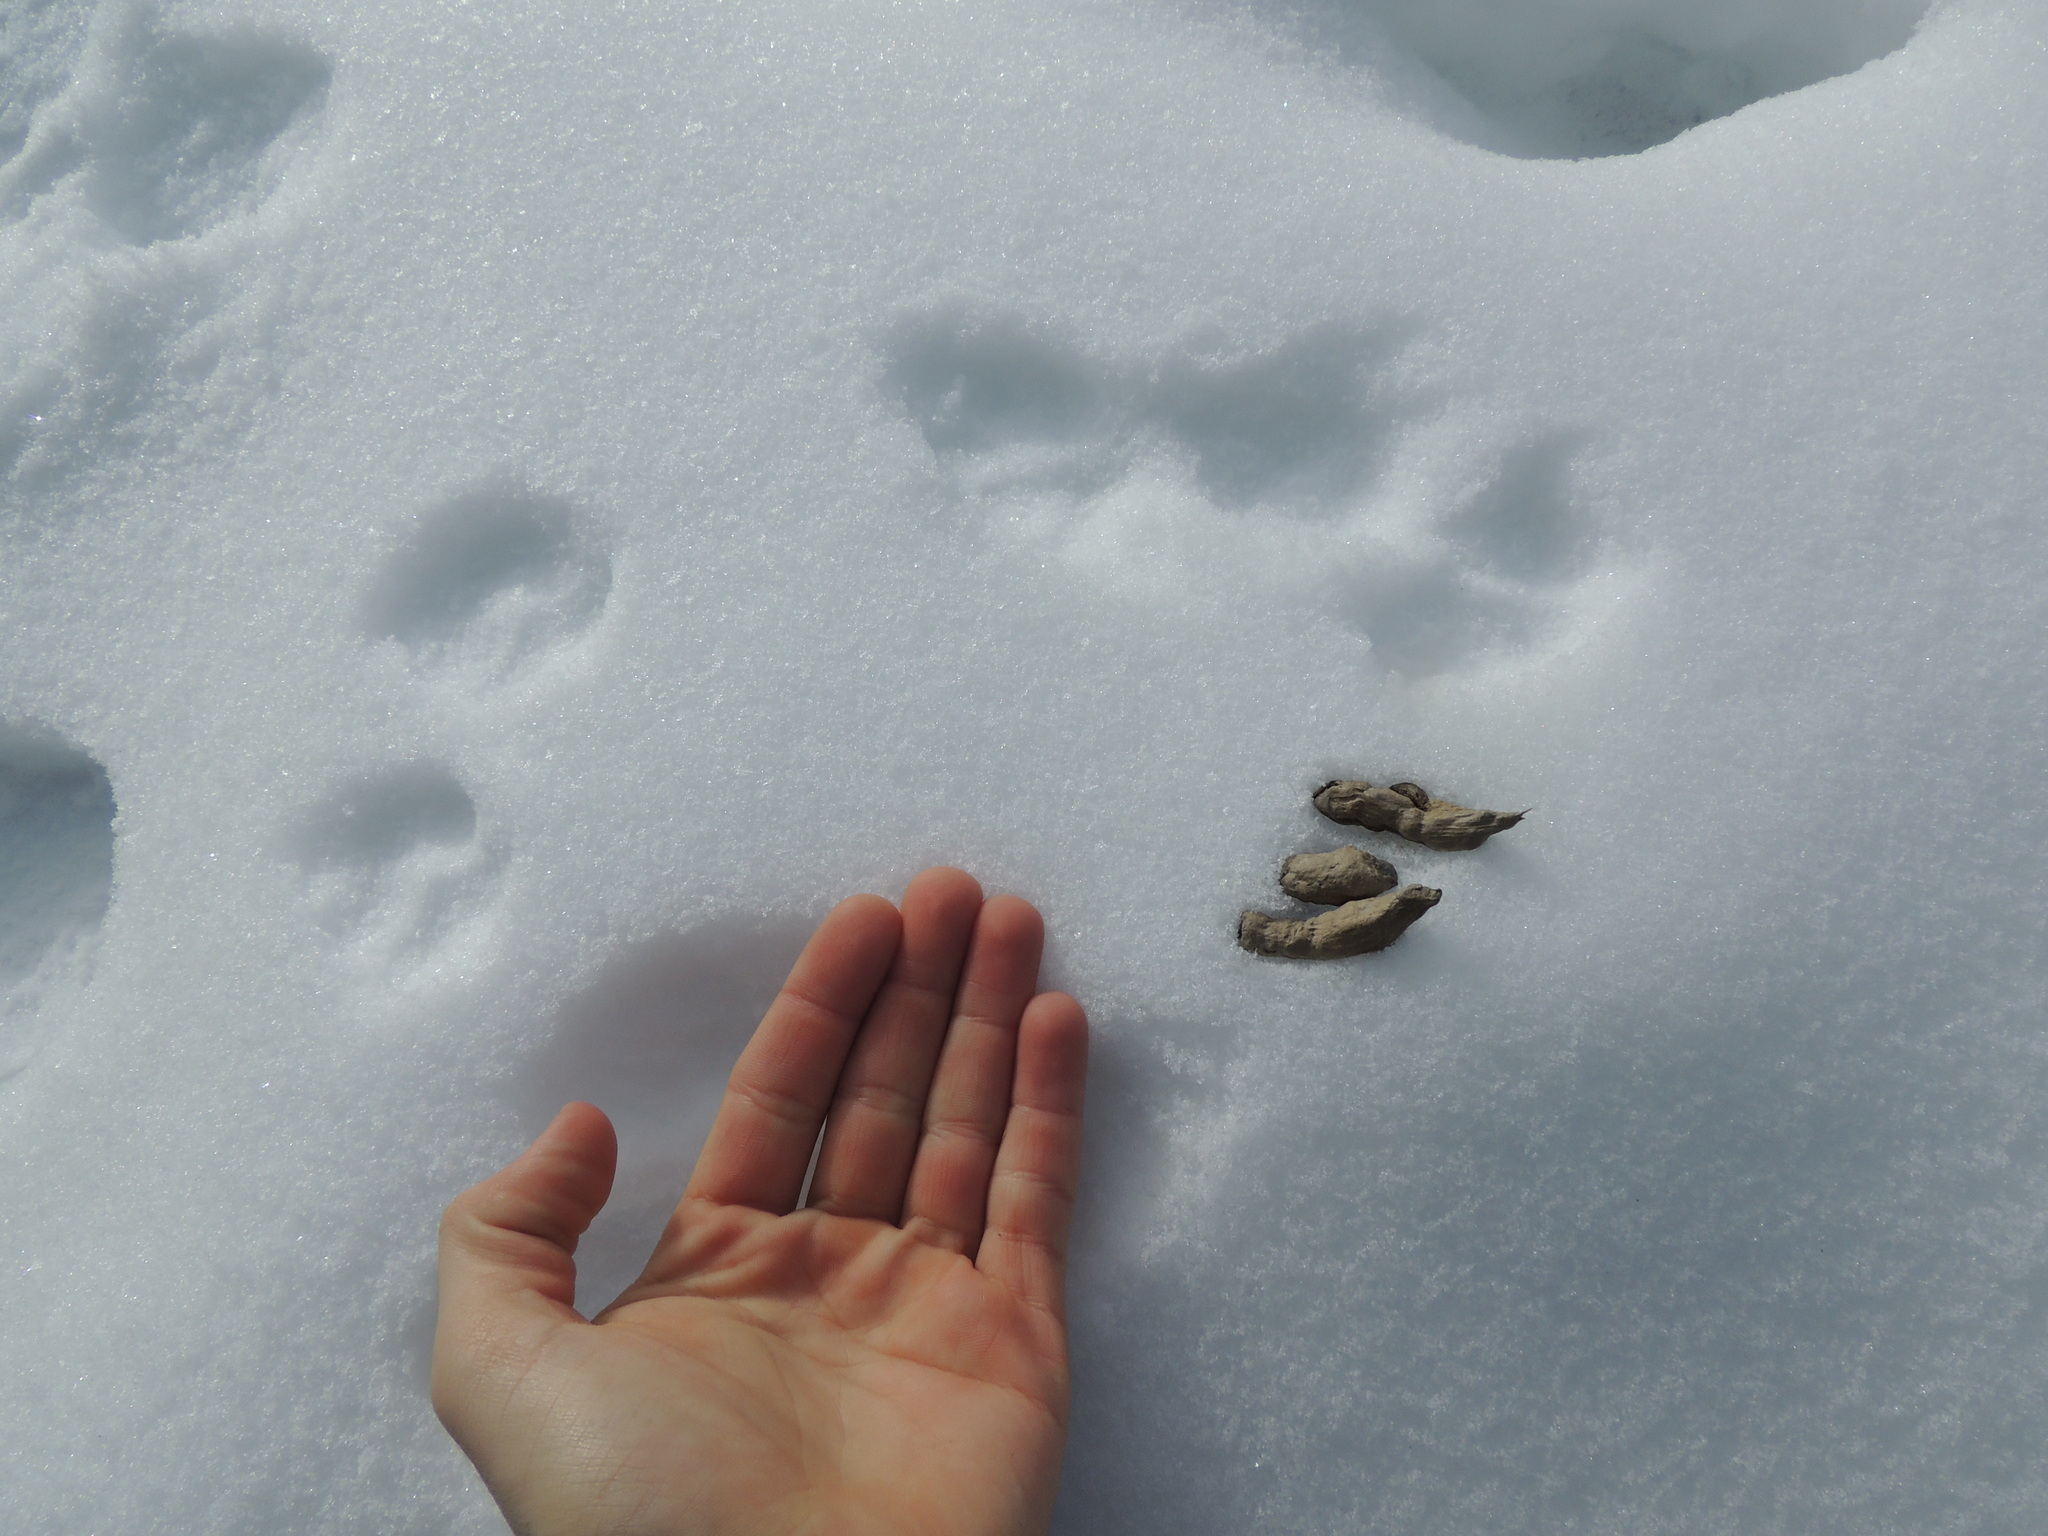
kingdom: Animalia
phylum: Chordata
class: Mammalia
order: Carnivora
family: Canidae
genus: Vulpes
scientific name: Vulpes vulpes
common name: Red fox
